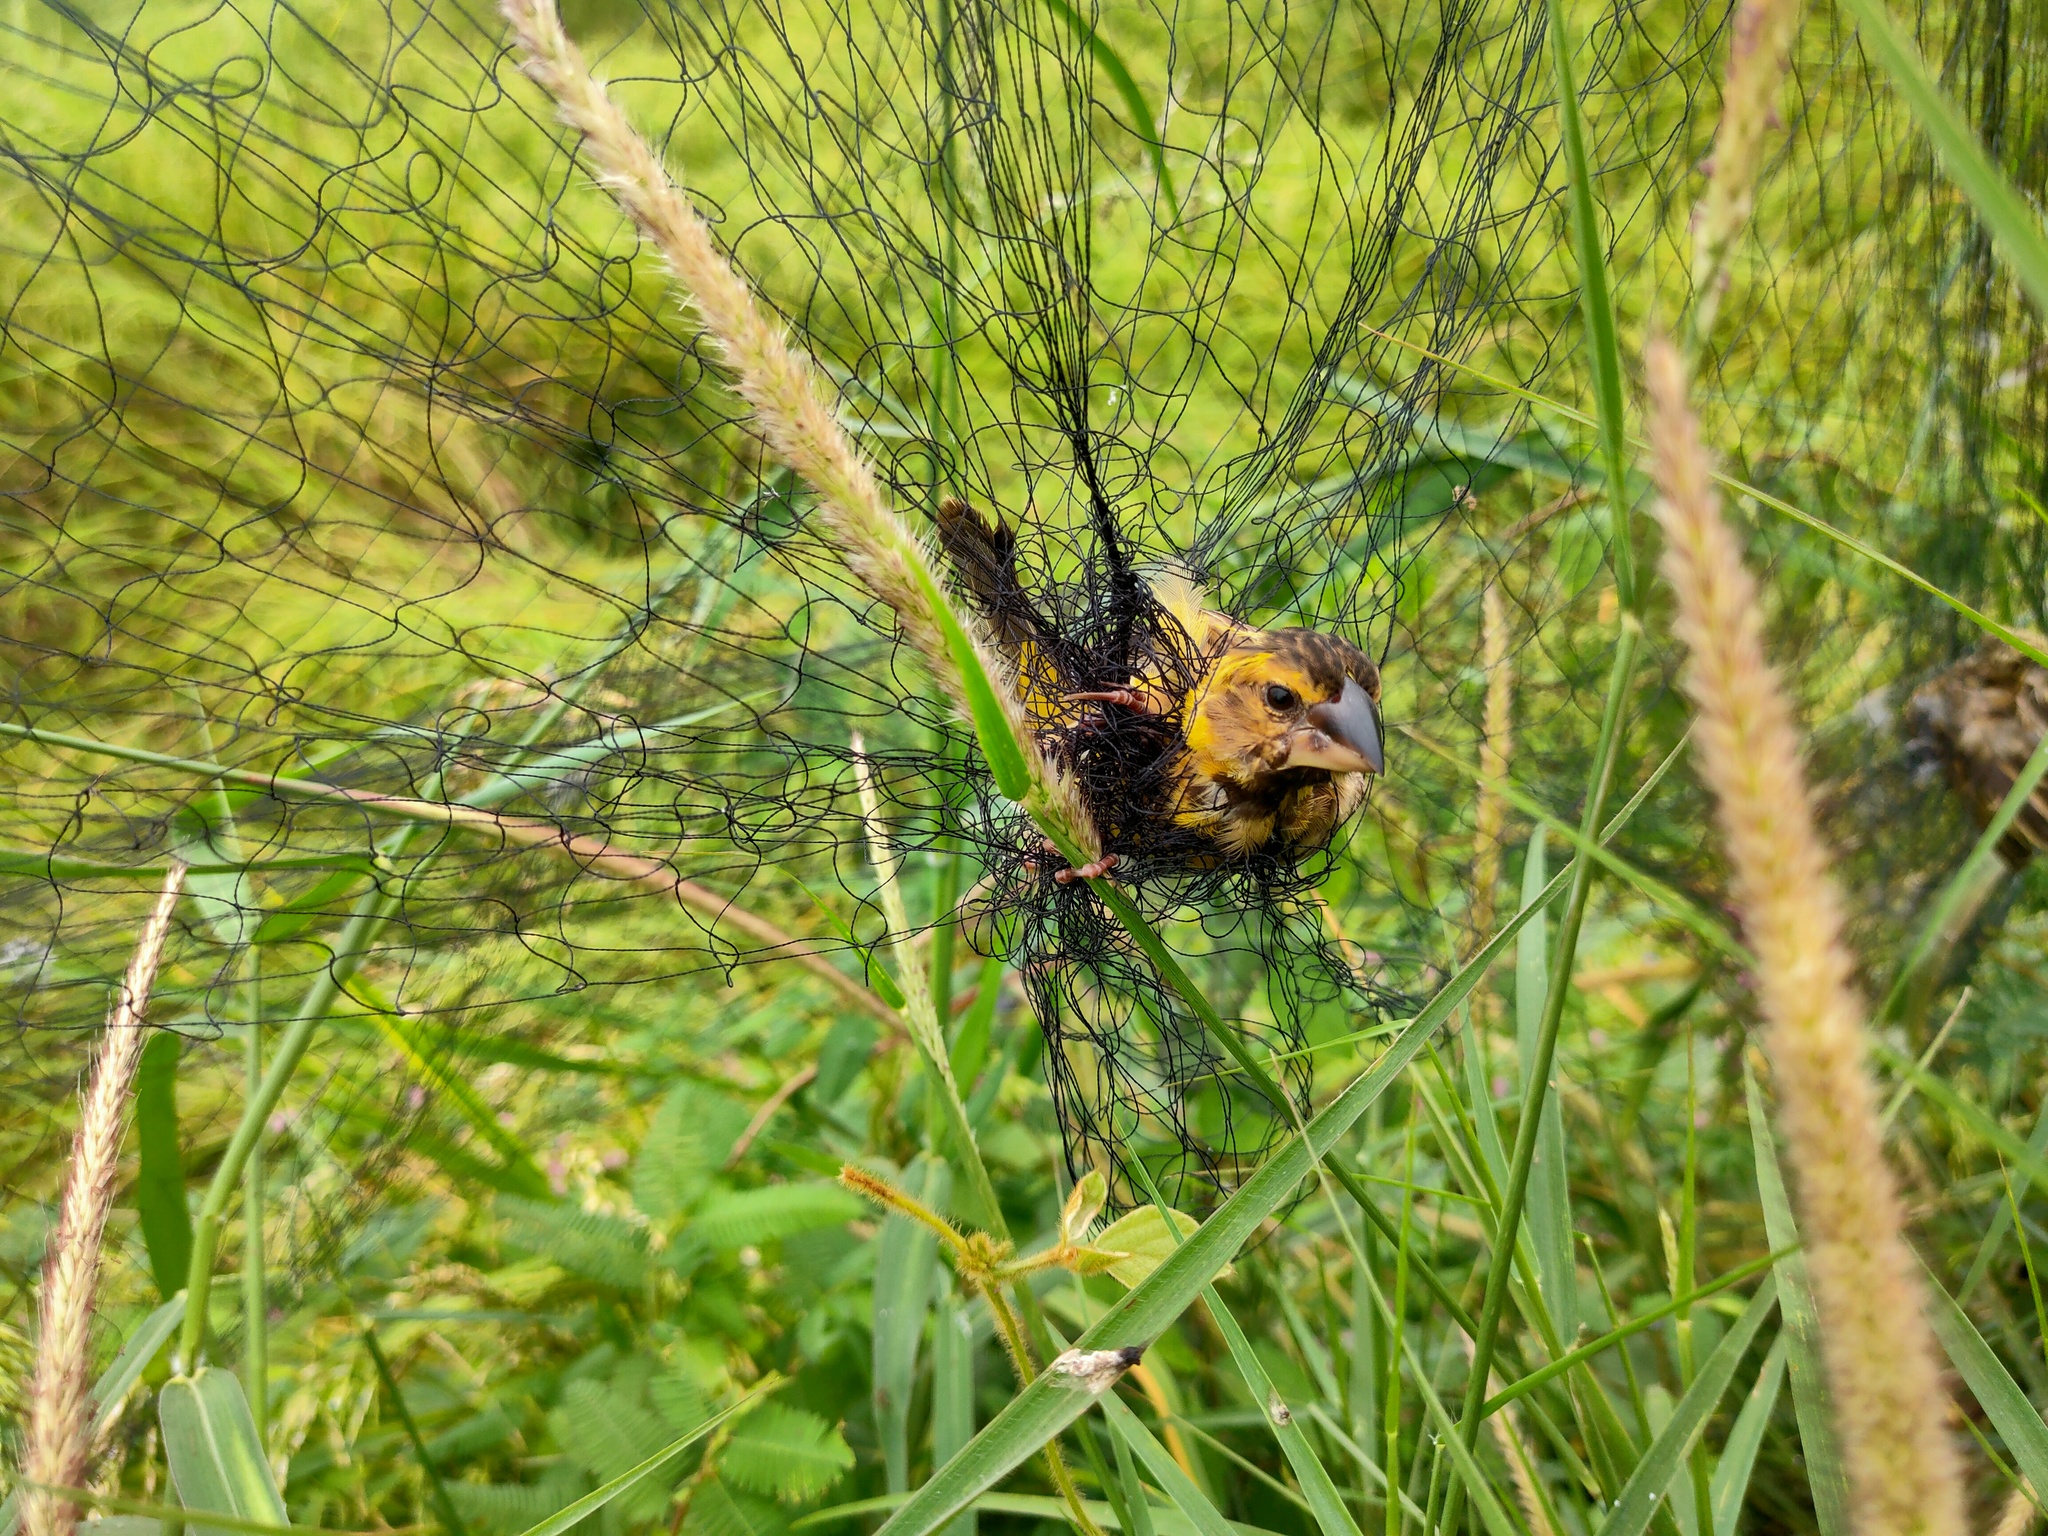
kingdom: Animalia
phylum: Chordata
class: Aves
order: Passeriformes
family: Ploceidae
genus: Ploceus
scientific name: Ploceus hypoxanthus
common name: Asian golden weaver
